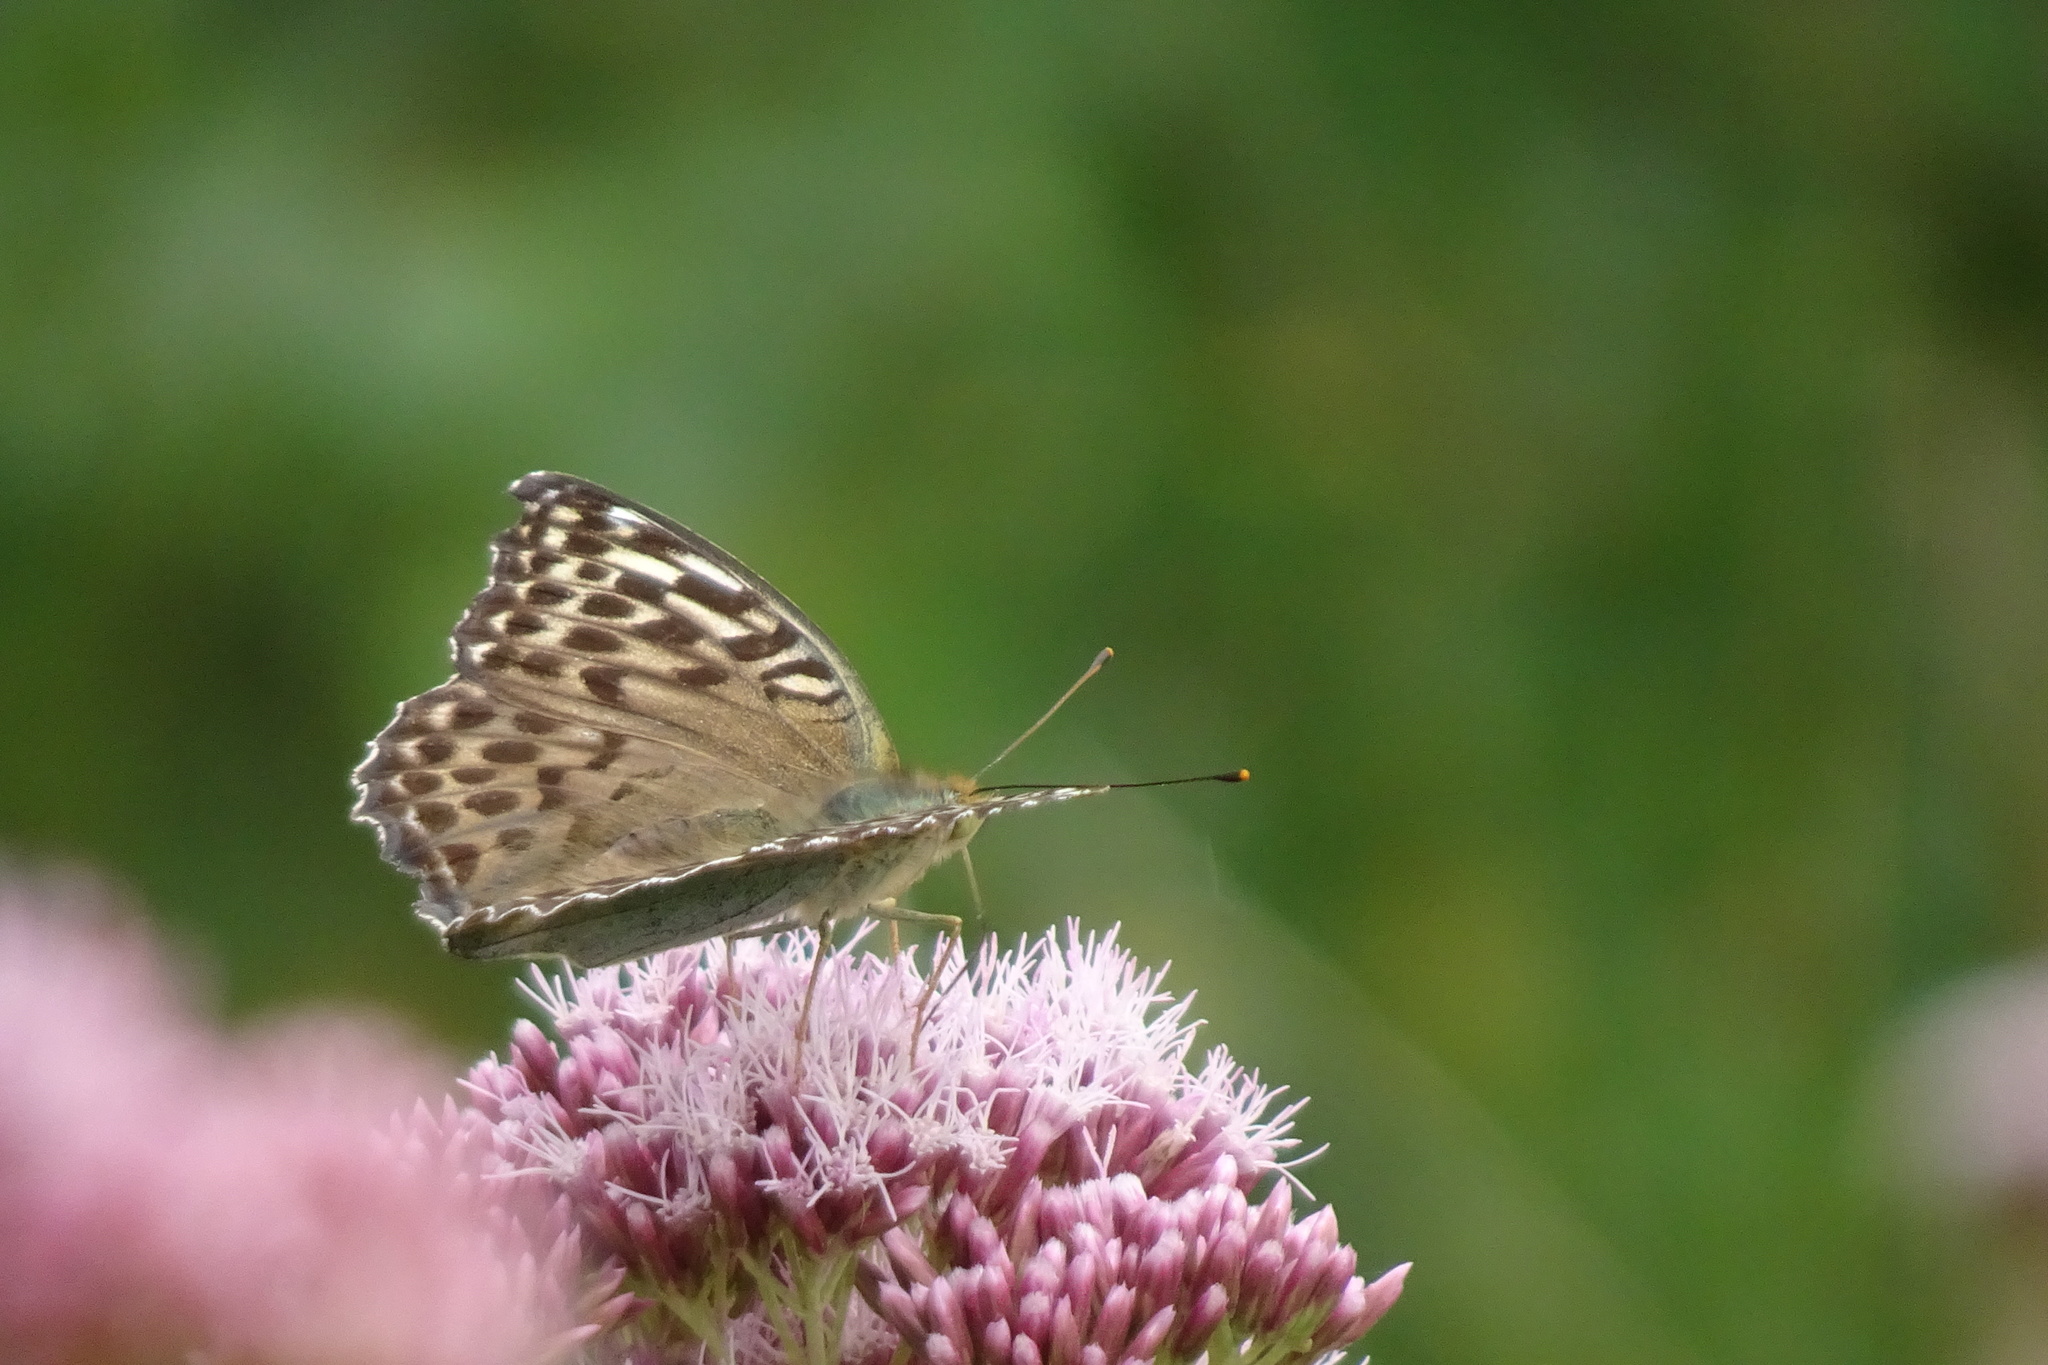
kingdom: Animalia
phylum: Arthropoda
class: Insecta
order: Lepidoptera
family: Nymphalidae
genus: Argynnis
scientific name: Argynnis paphia
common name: Silver-washed fritillary
